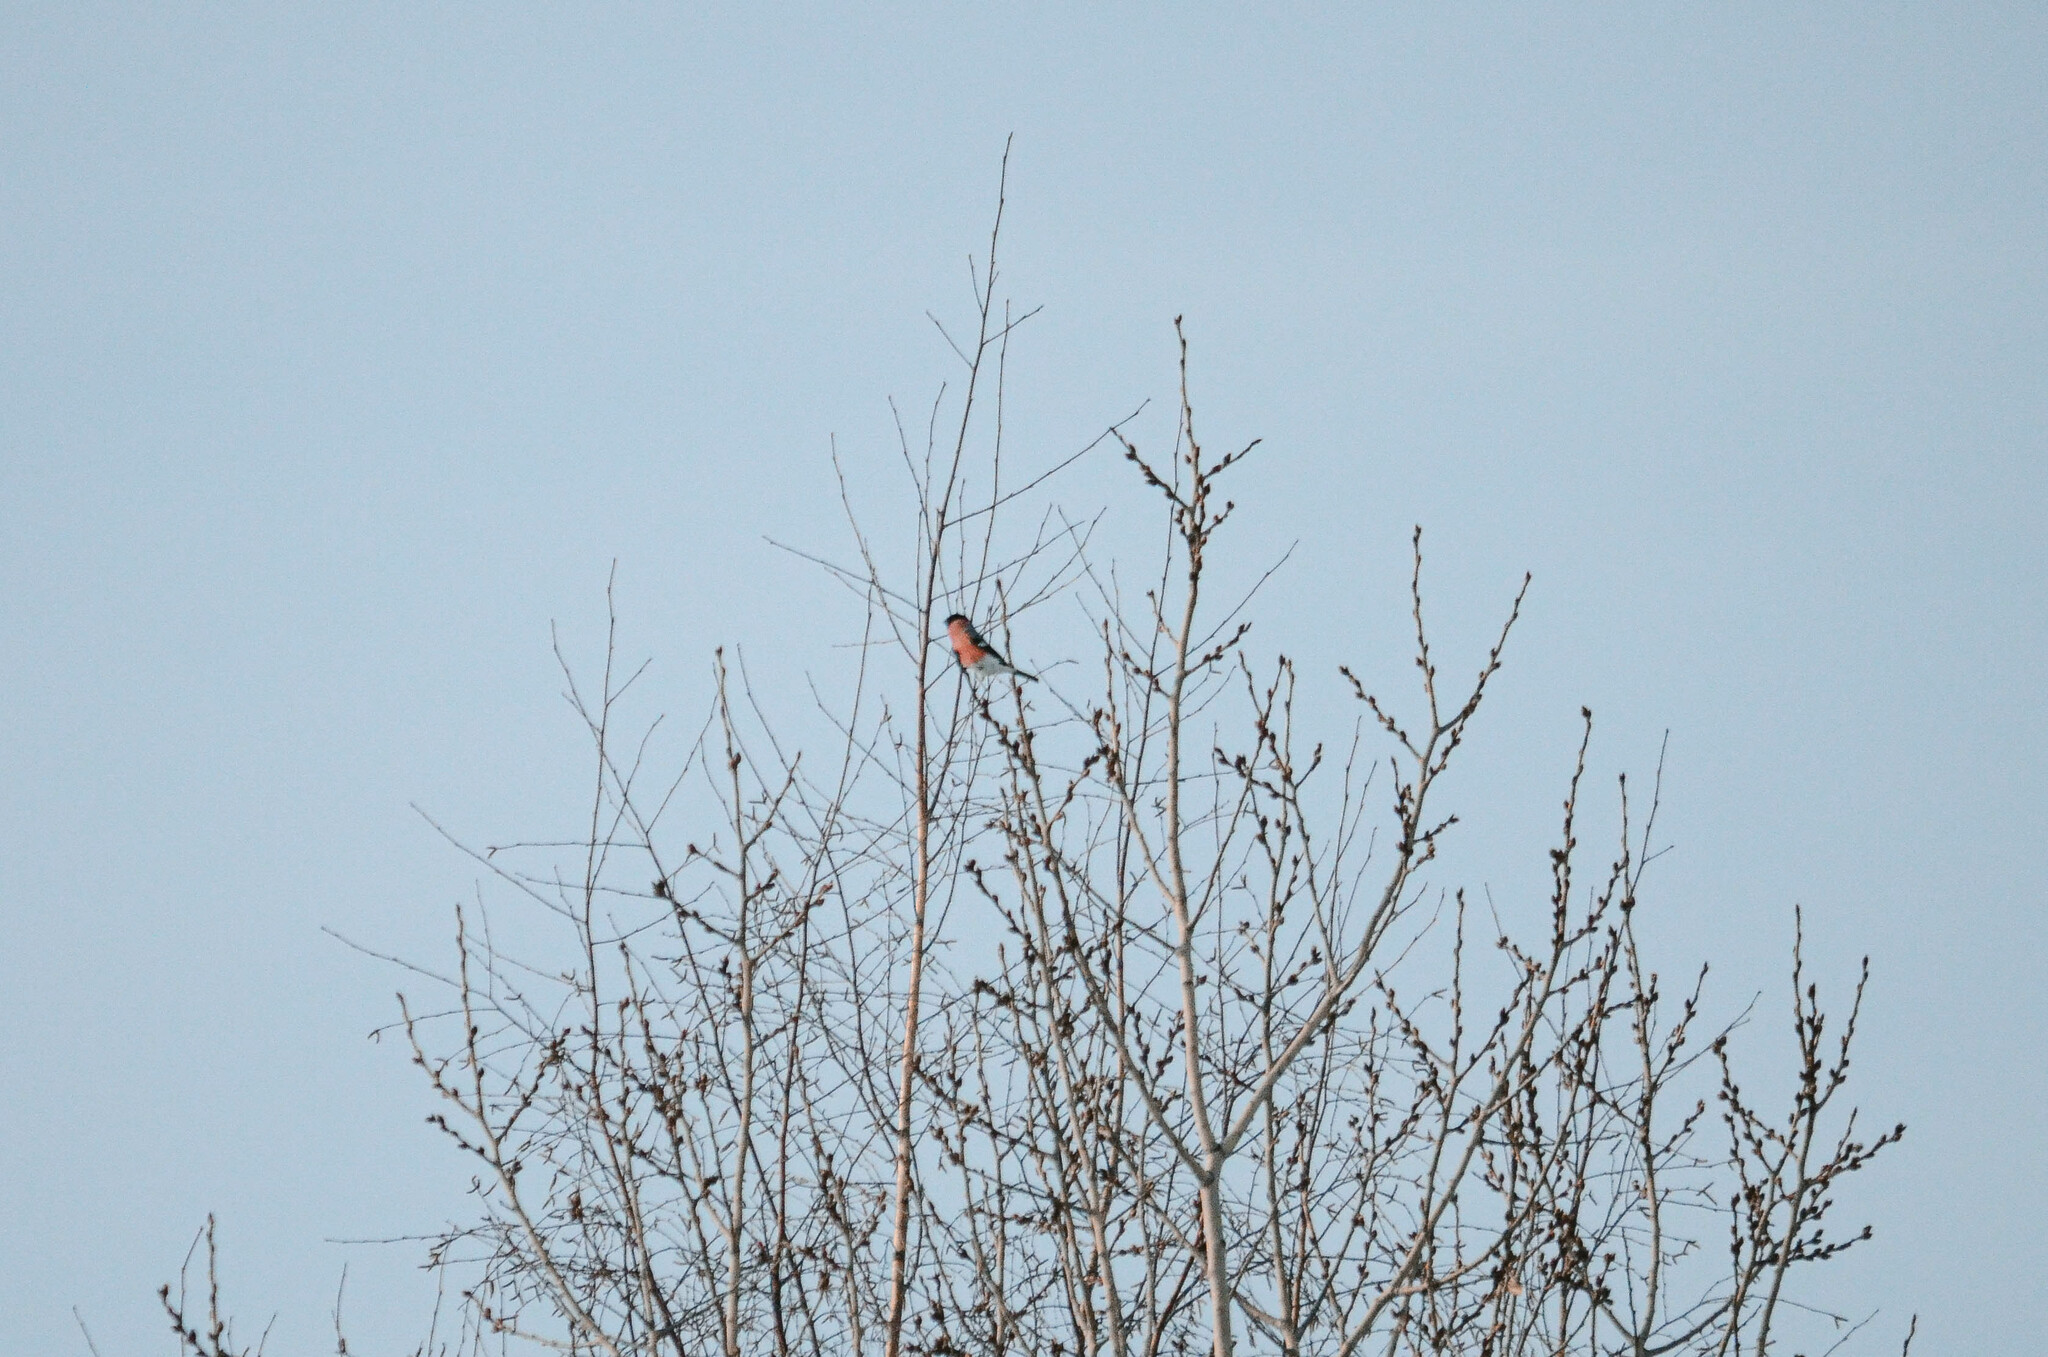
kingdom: Animalia
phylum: Chordata
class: Aves
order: Passeriformes
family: Fringillidae
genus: Pyrrhula
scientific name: Pyrrhula pyrrhula
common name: Eurasian bullfinch
